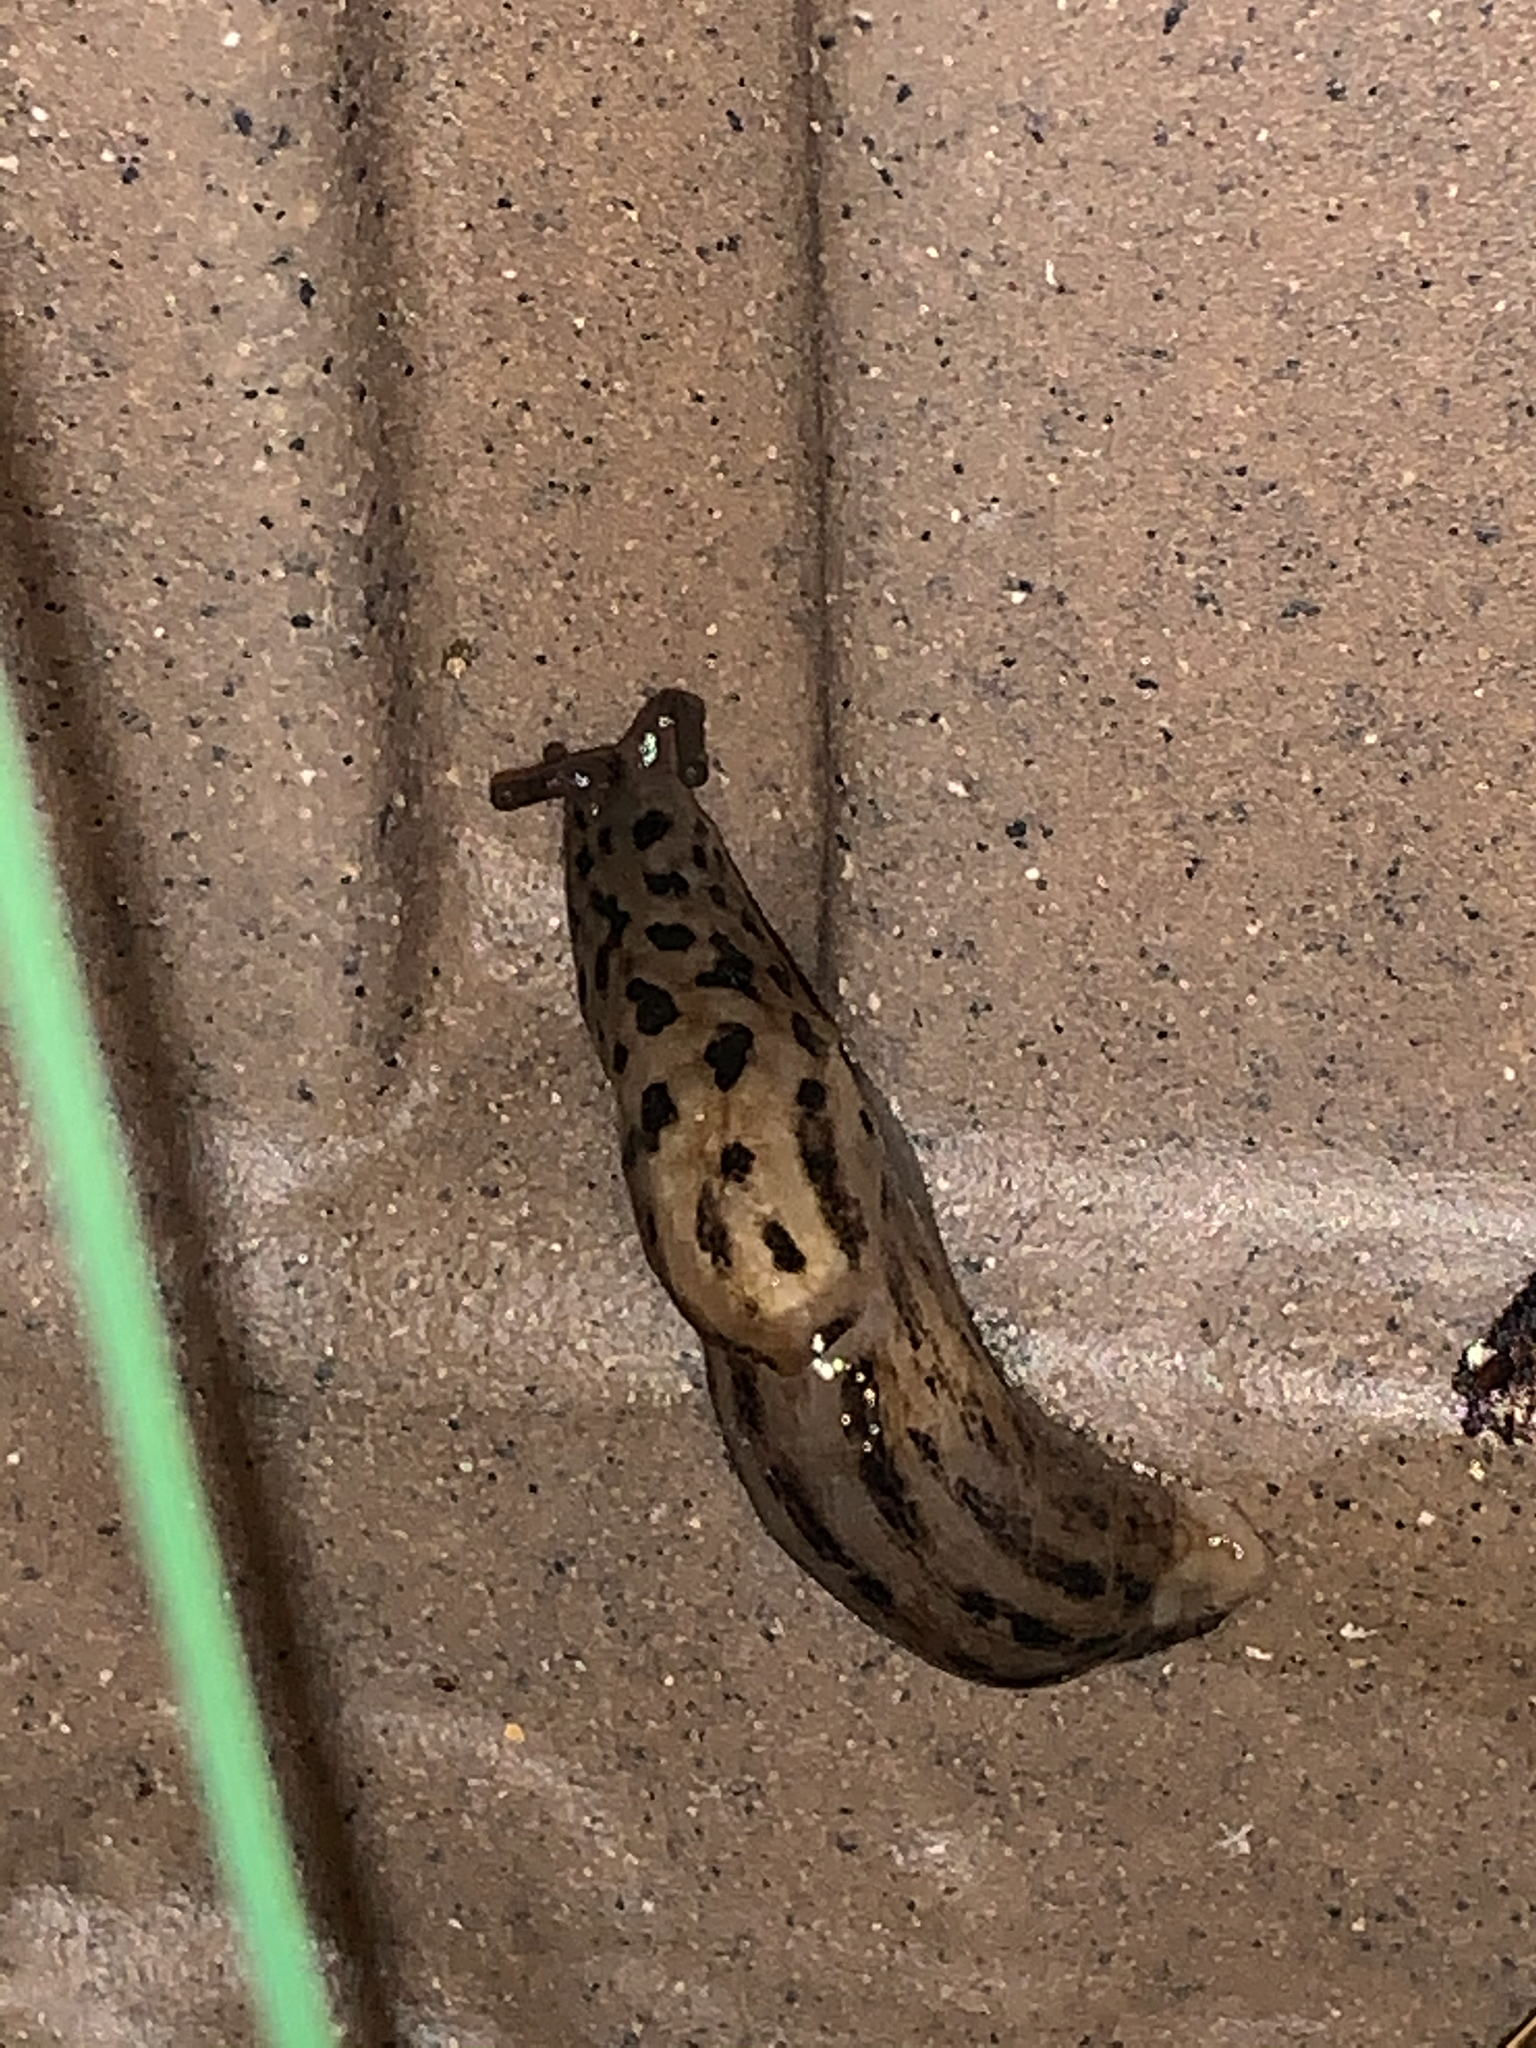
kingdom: Animalia
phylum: Mollusca
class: Gastropoda
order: Stylommatophora
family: Limacidae
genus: Limax
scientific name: Limax maximus
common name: Great grey slug
